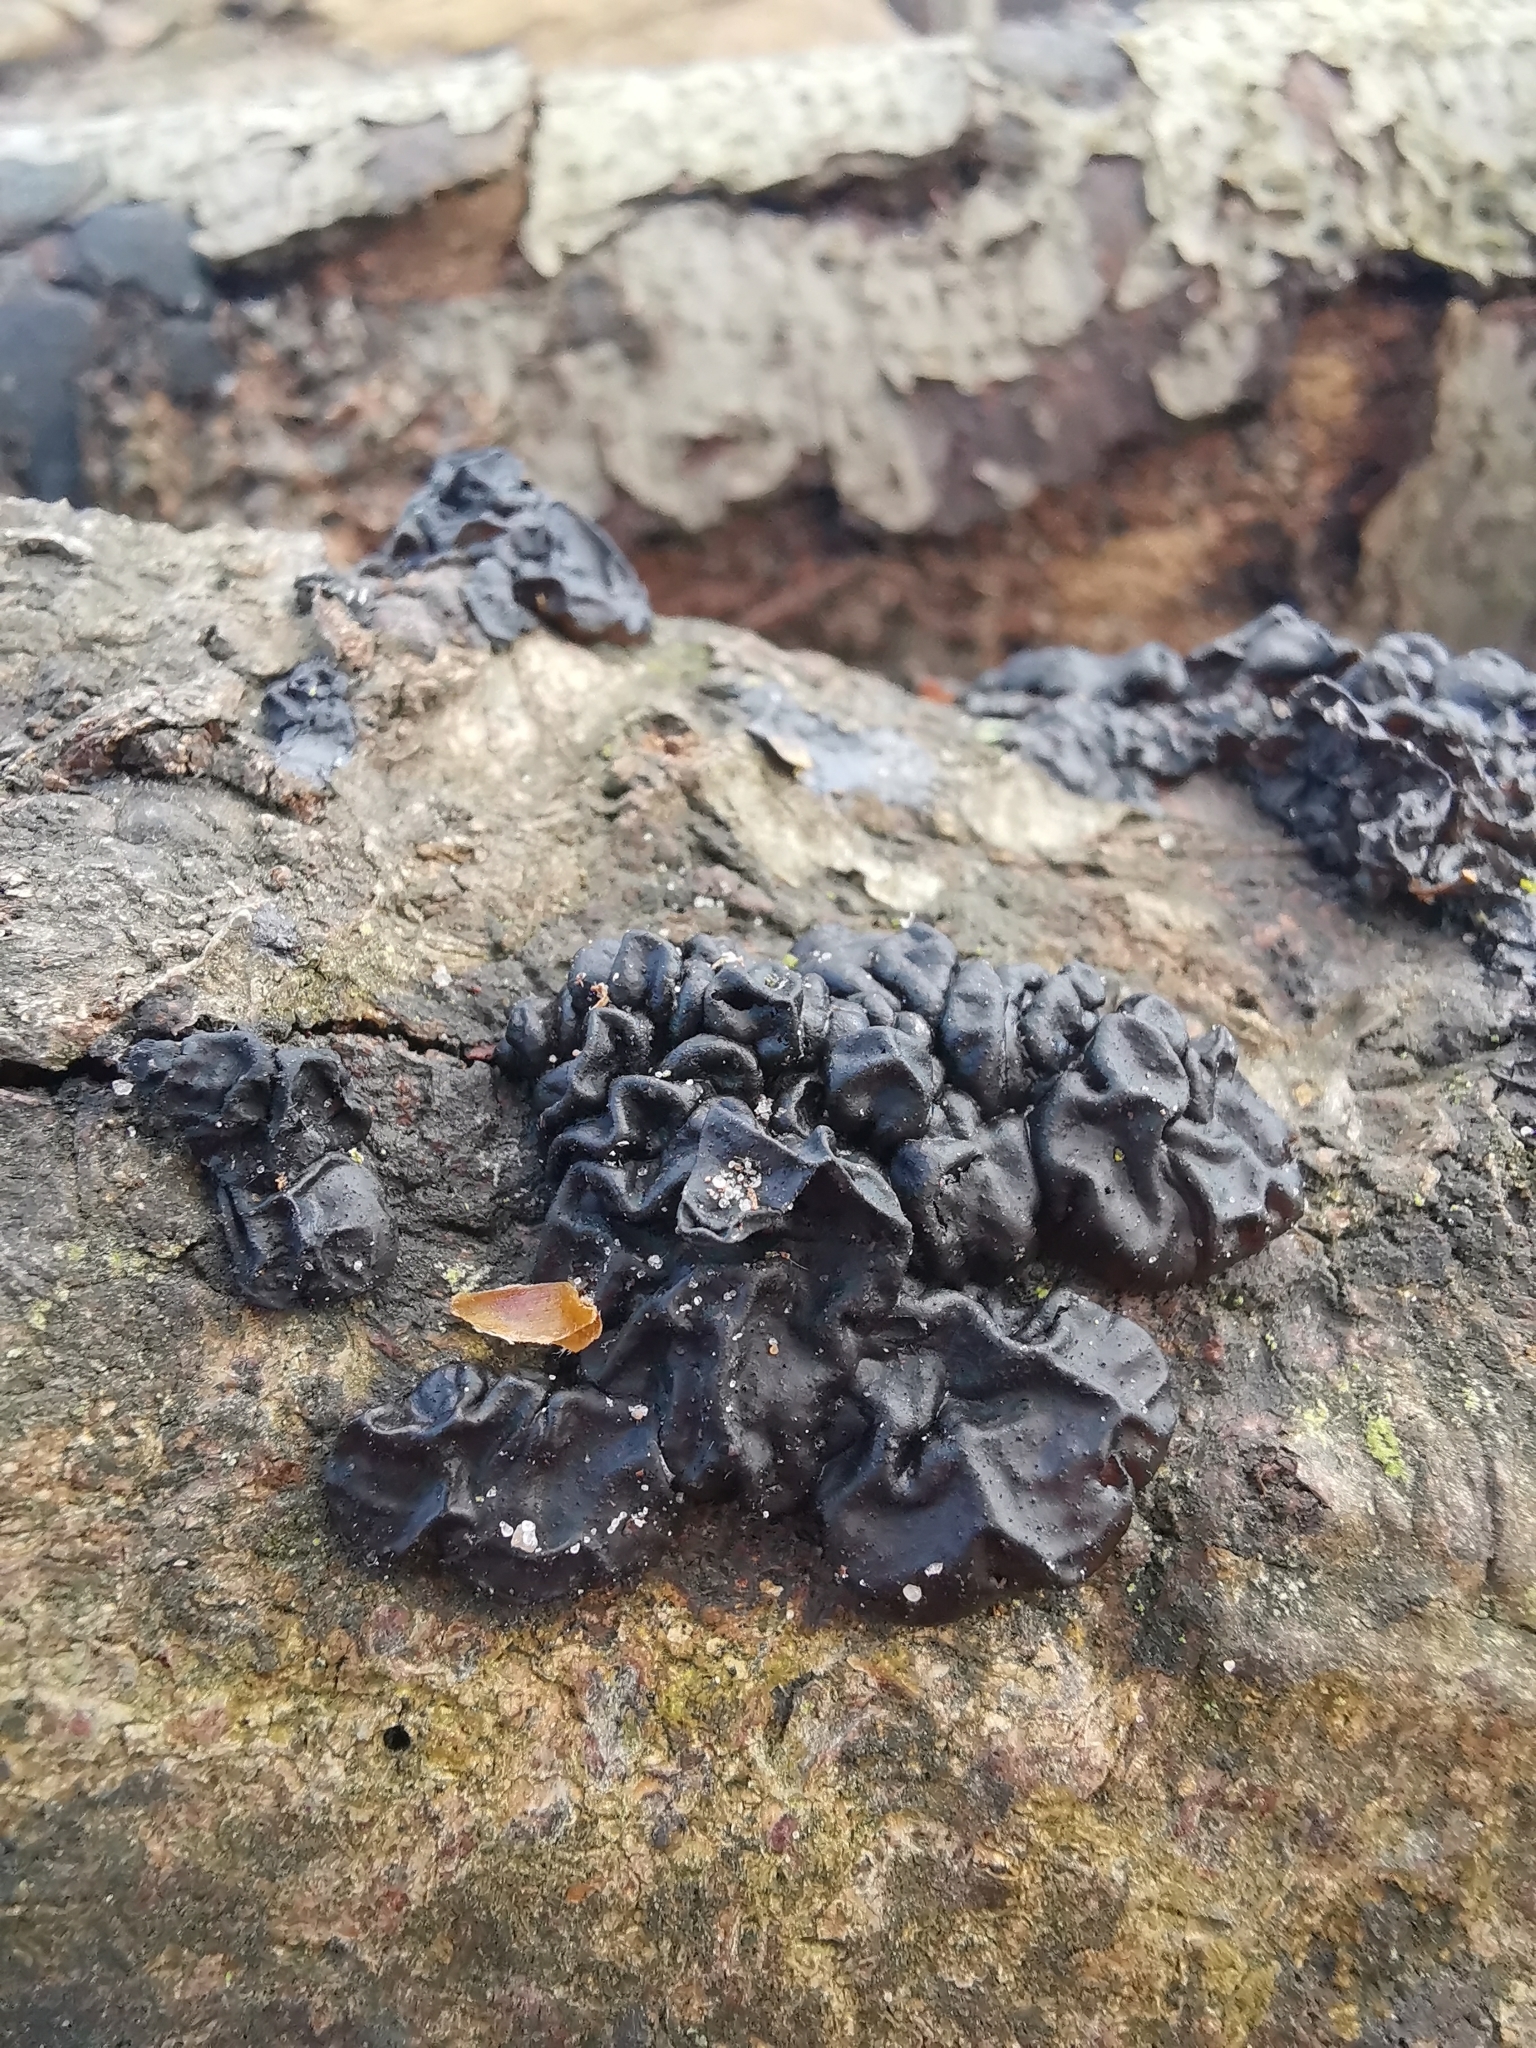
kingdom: Fungi
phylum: Basidiomycota
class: Agaricomycetes
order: Auriculariales
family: Auriculariaceae
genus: Exidia
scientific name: Exidia nigricans
